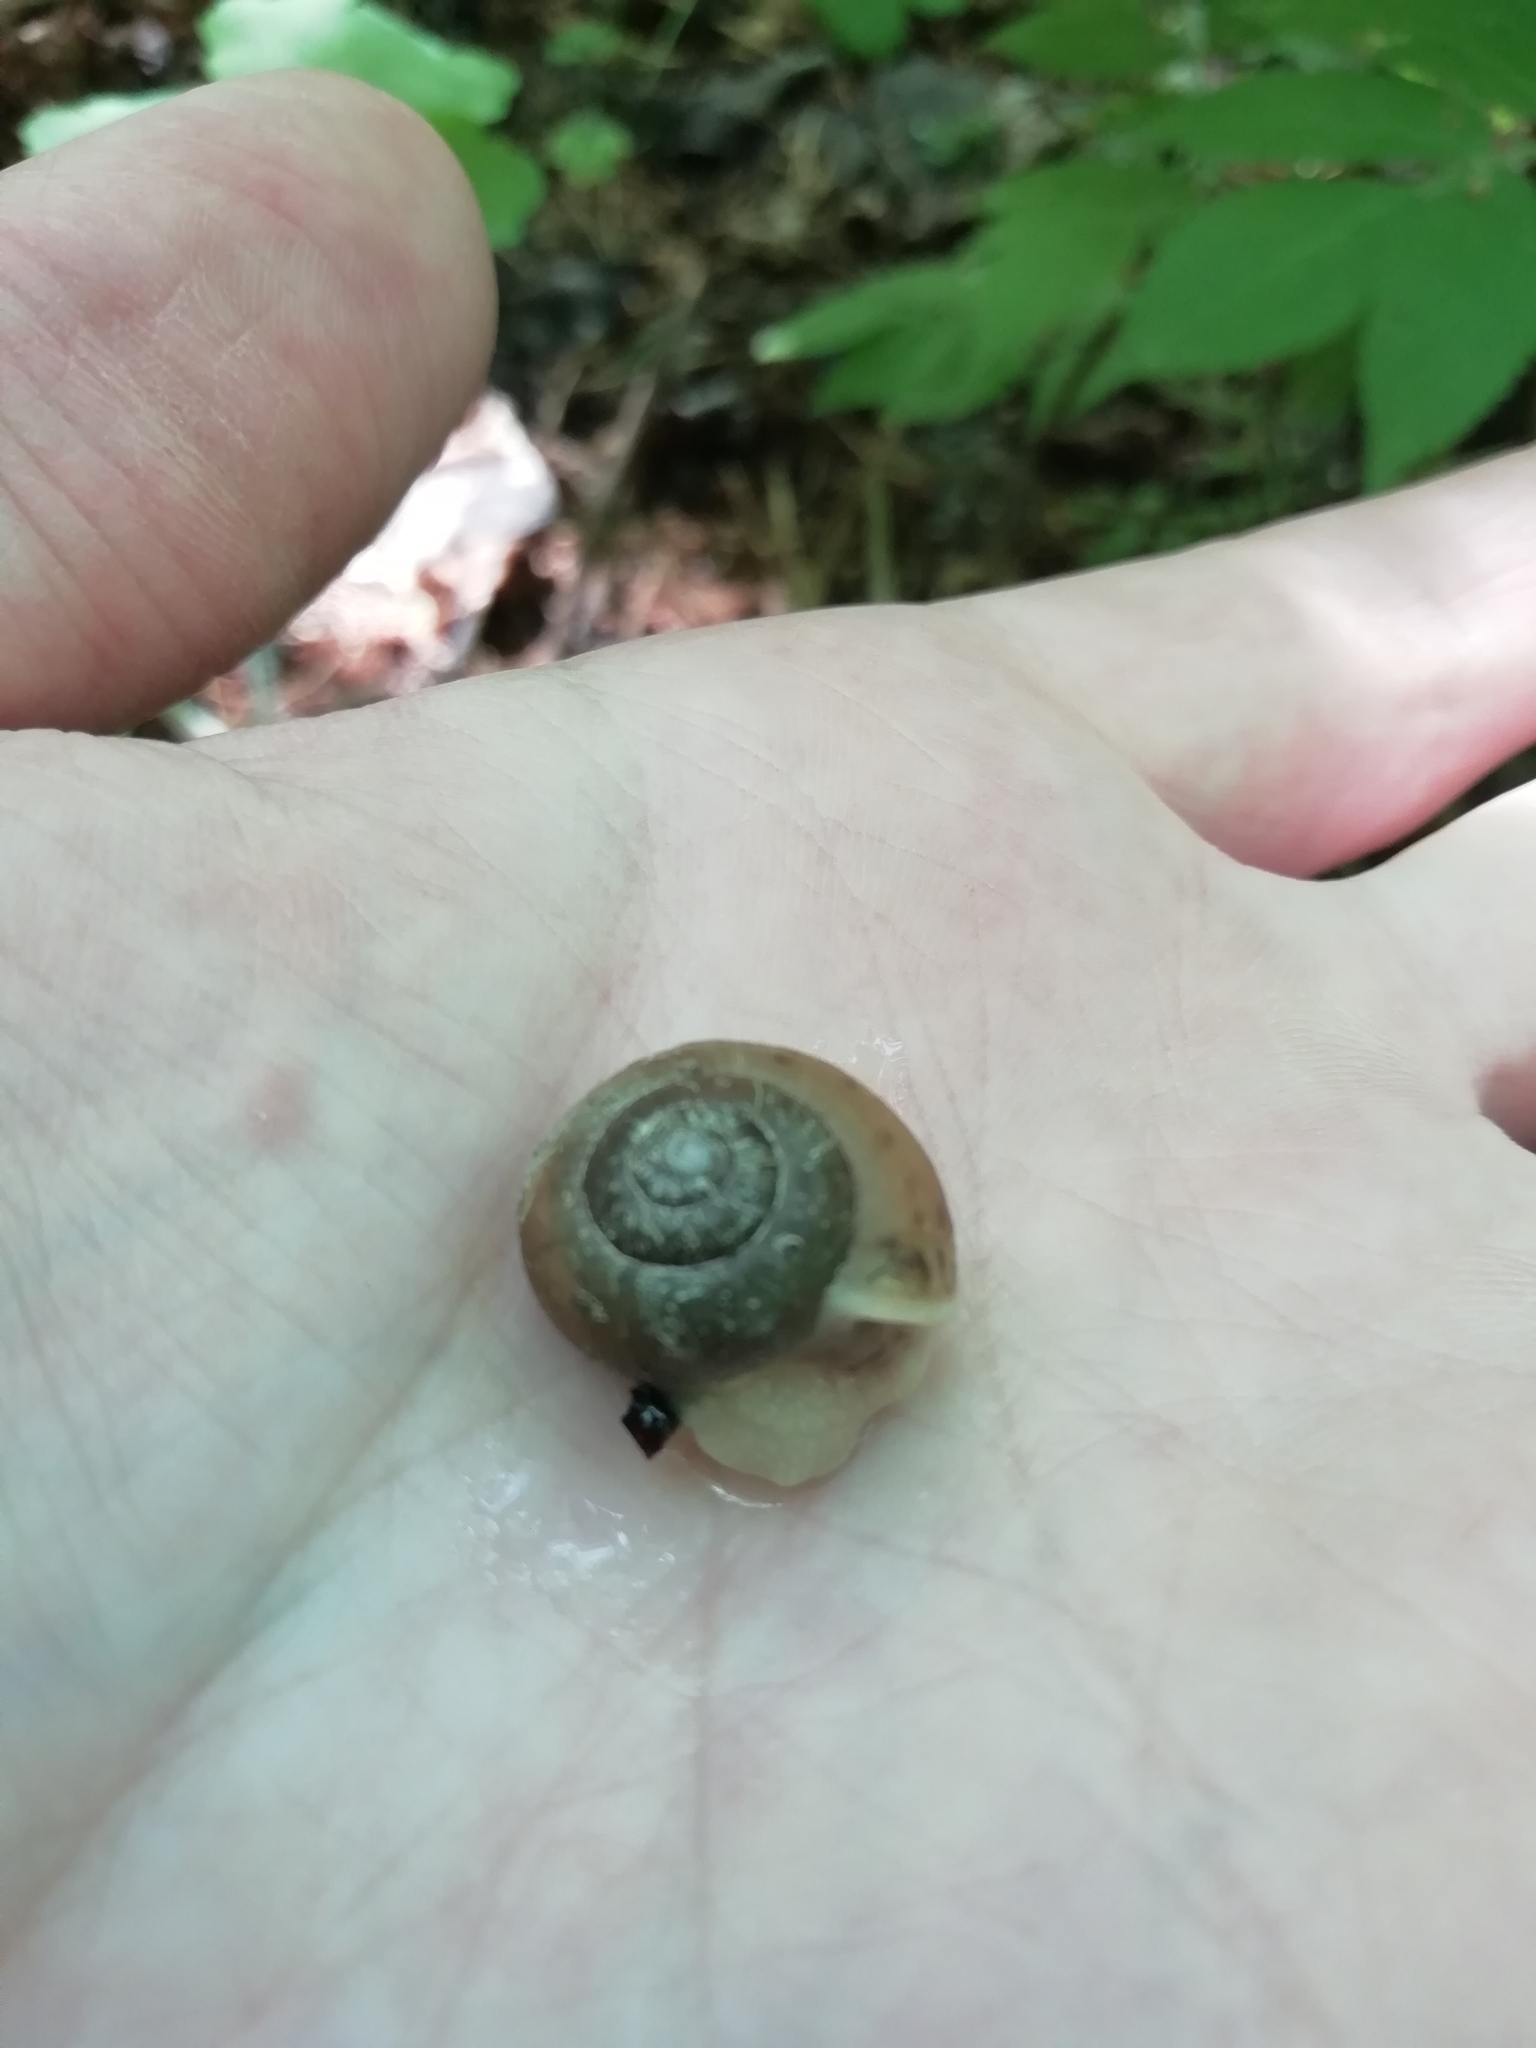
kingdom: Animalia
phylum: Mollusca
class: Gastropoda
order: Stylommatophora
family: Camaenidae
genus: Fruticicola
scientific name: Fruticicola fruticum
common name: Bush snail
